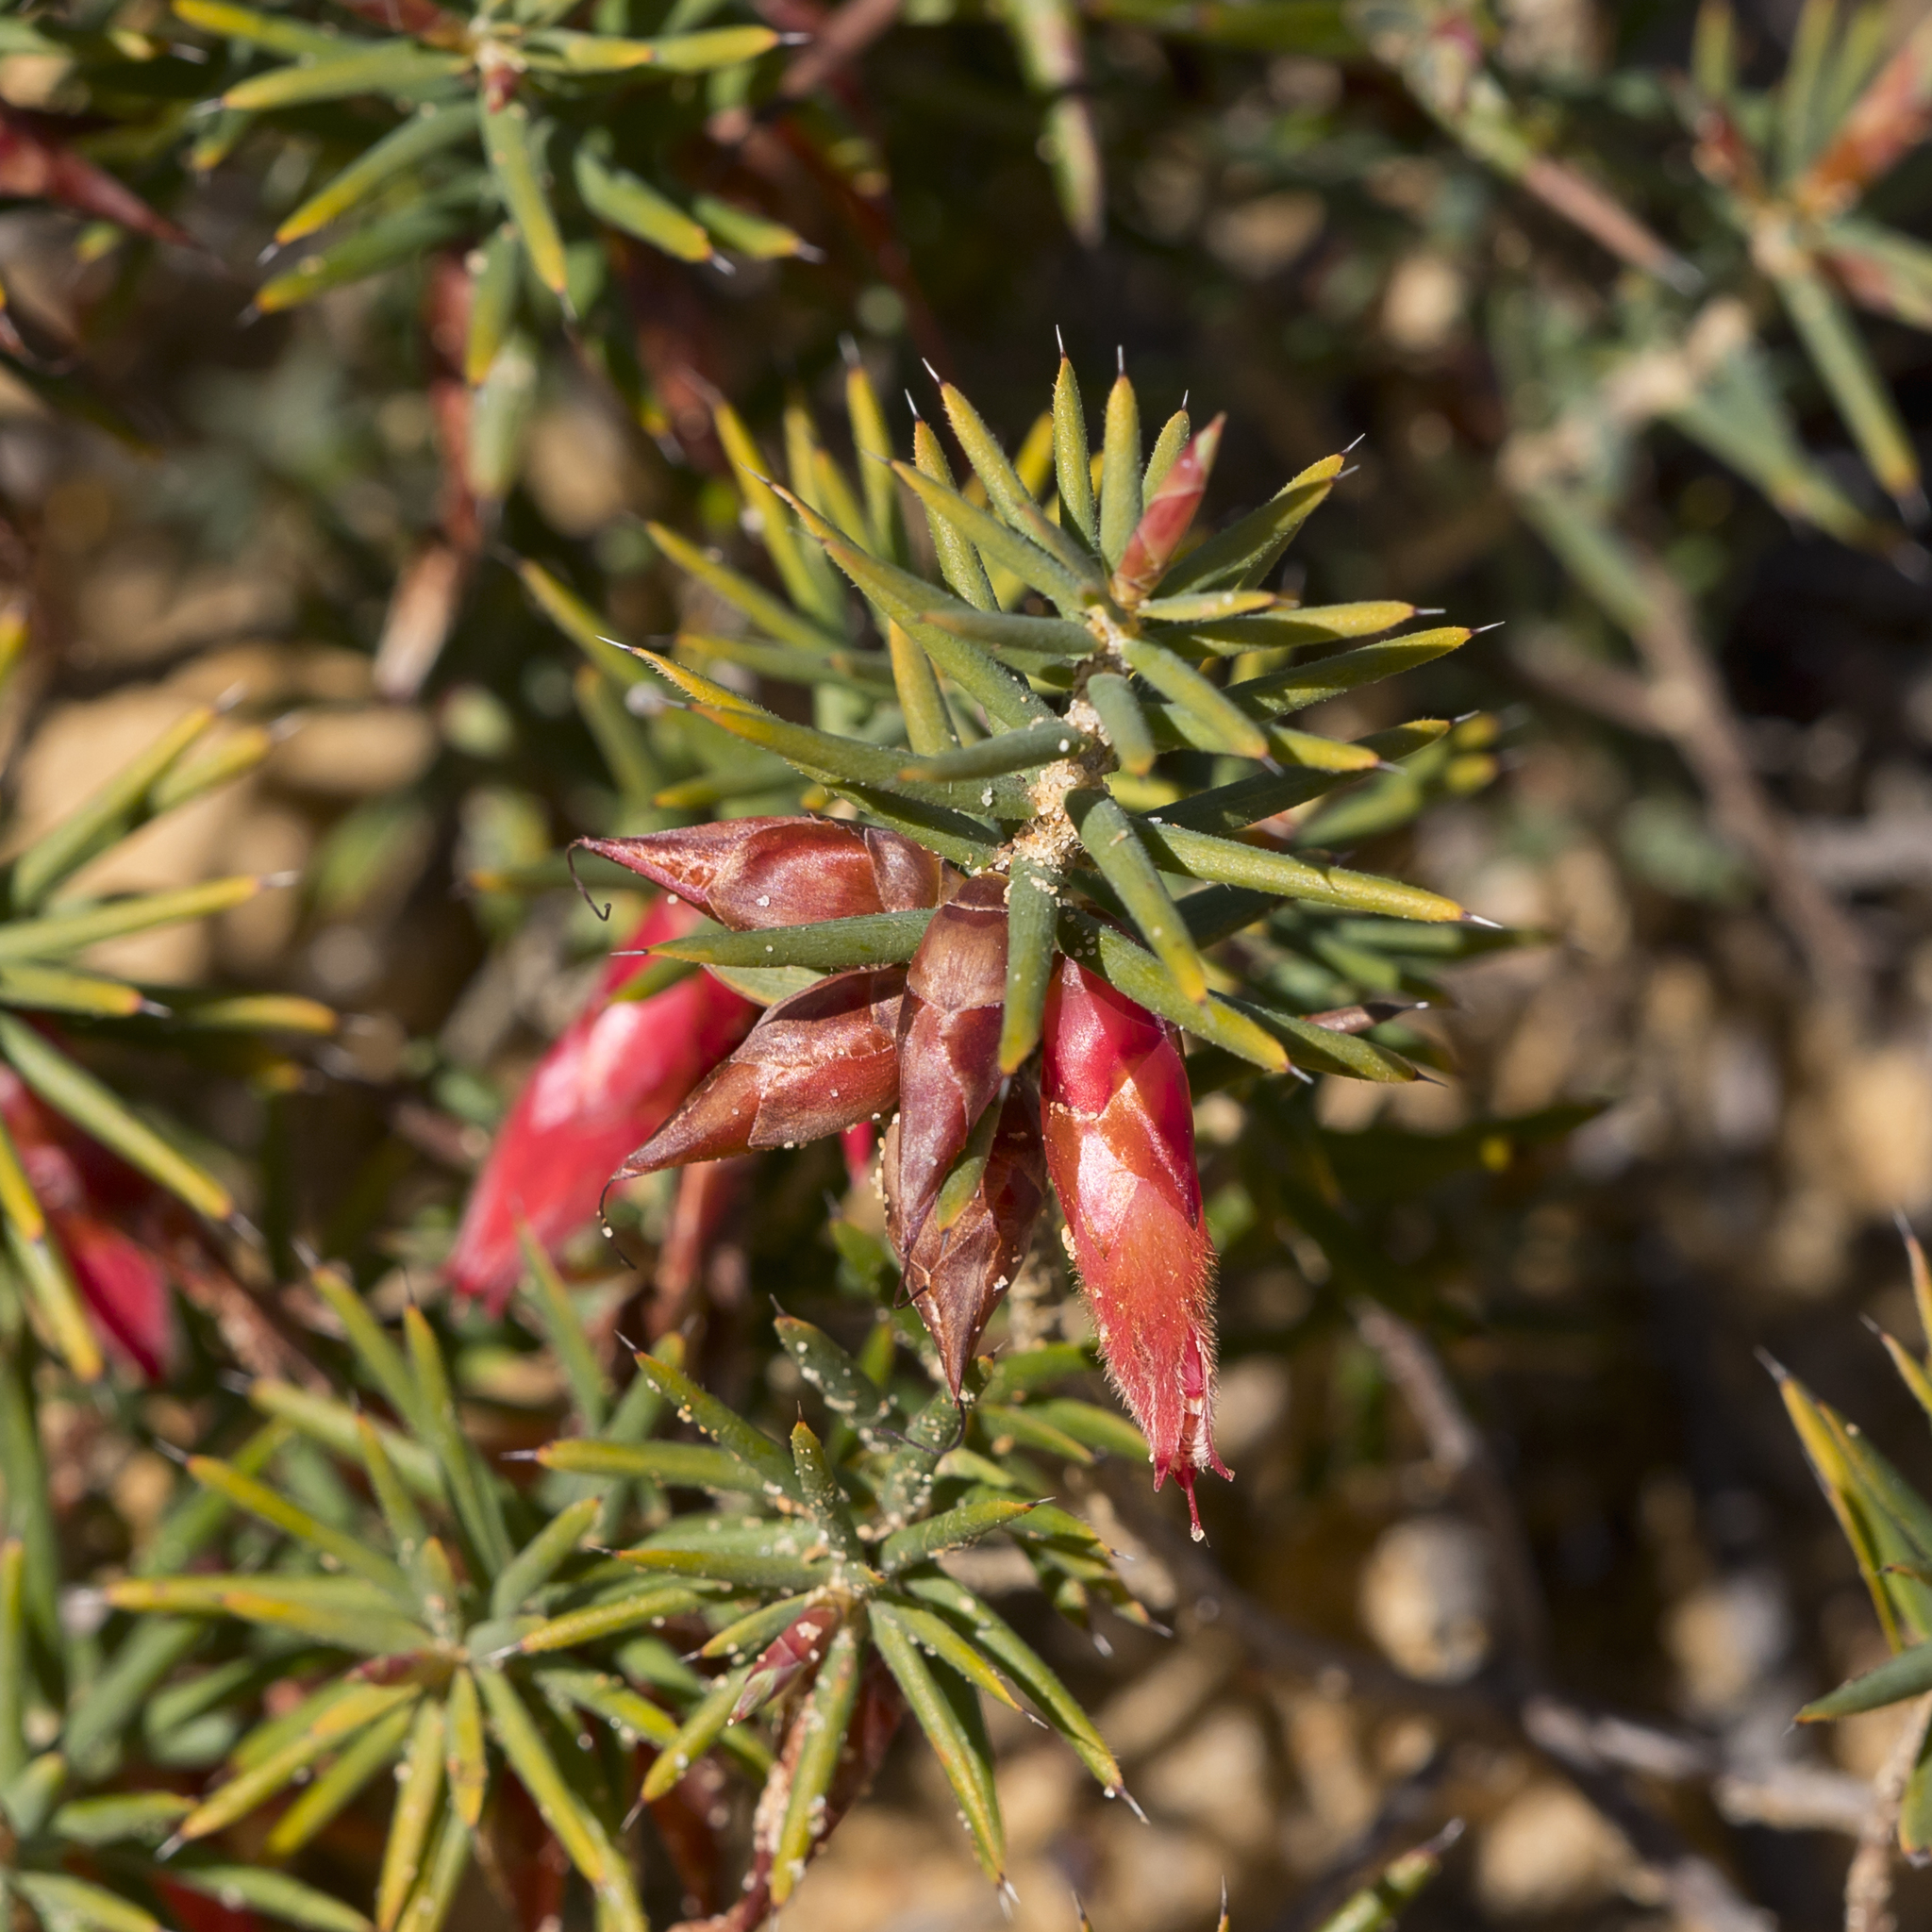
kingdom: Plantae
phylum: Tracheophyta
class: Magnoliopsida
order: Ericales
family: Ericaceae
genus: Stenanthera
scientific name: Stenanthera conostephioides
